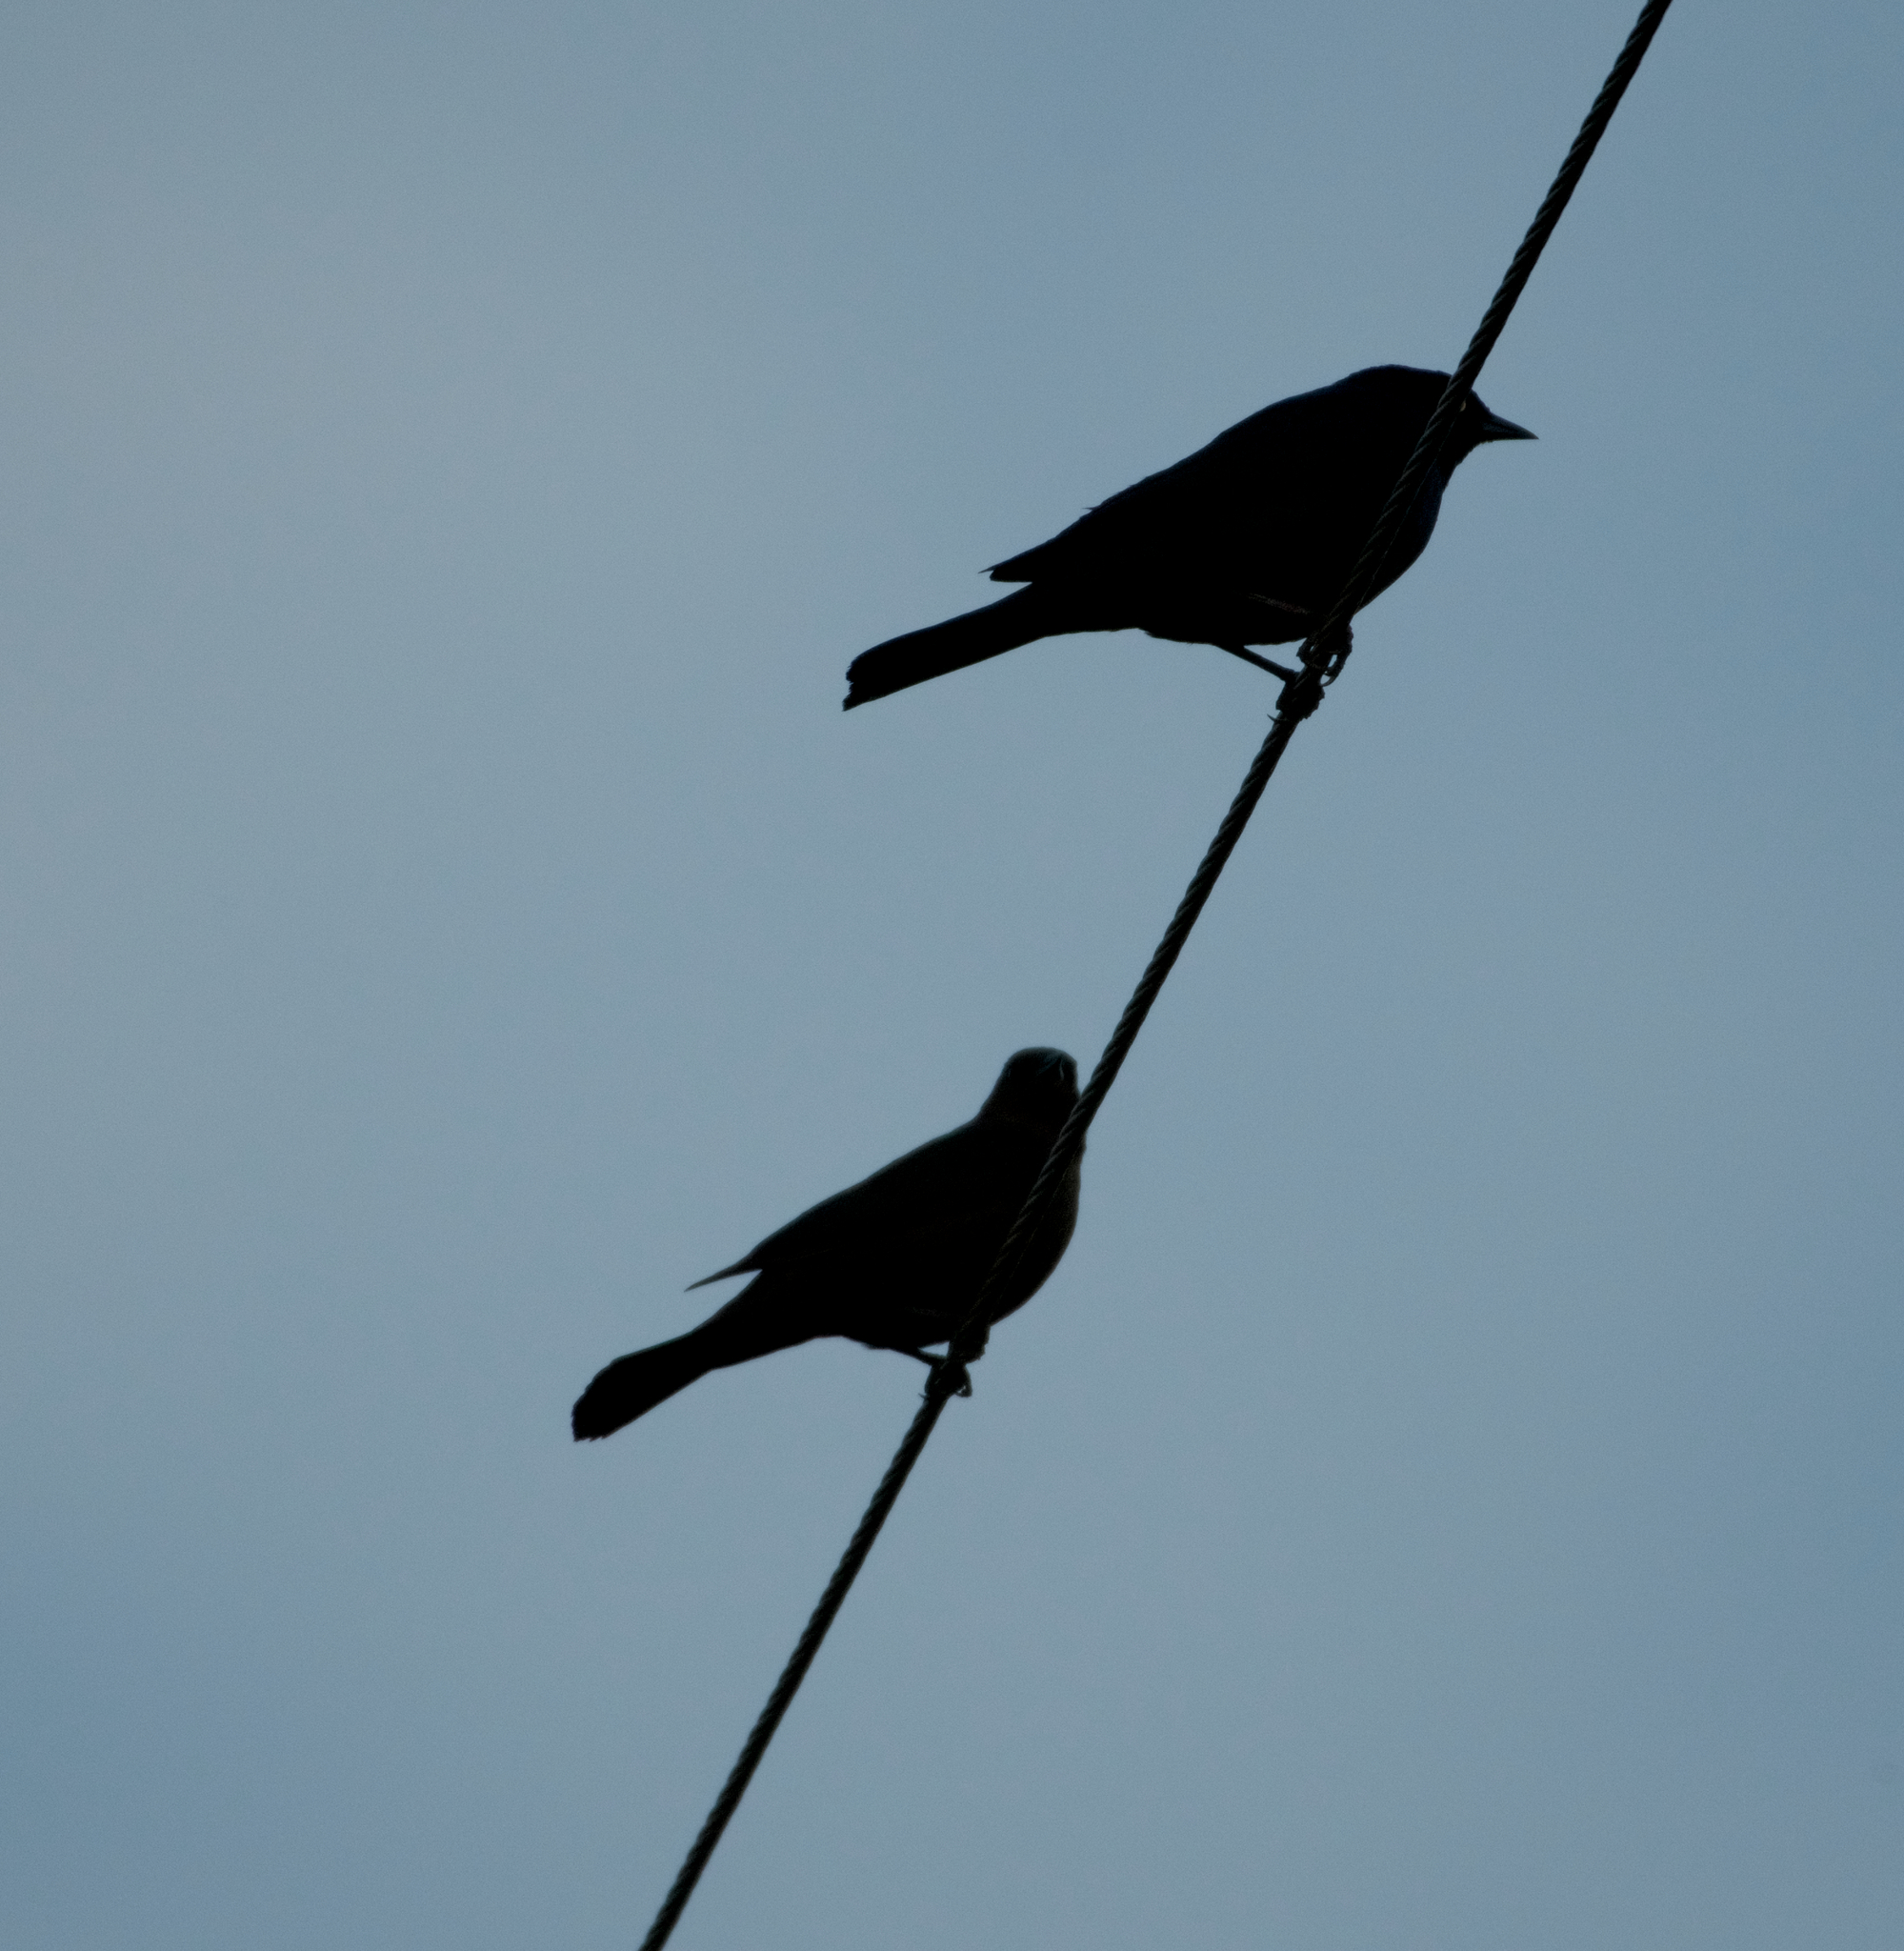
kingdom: Animalia
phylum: Chordata
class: Aves
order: Passeriformes
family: Icteridae
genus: Euphagus
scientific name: Euphagus cyanocephalus
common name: Brewer's blackbird
